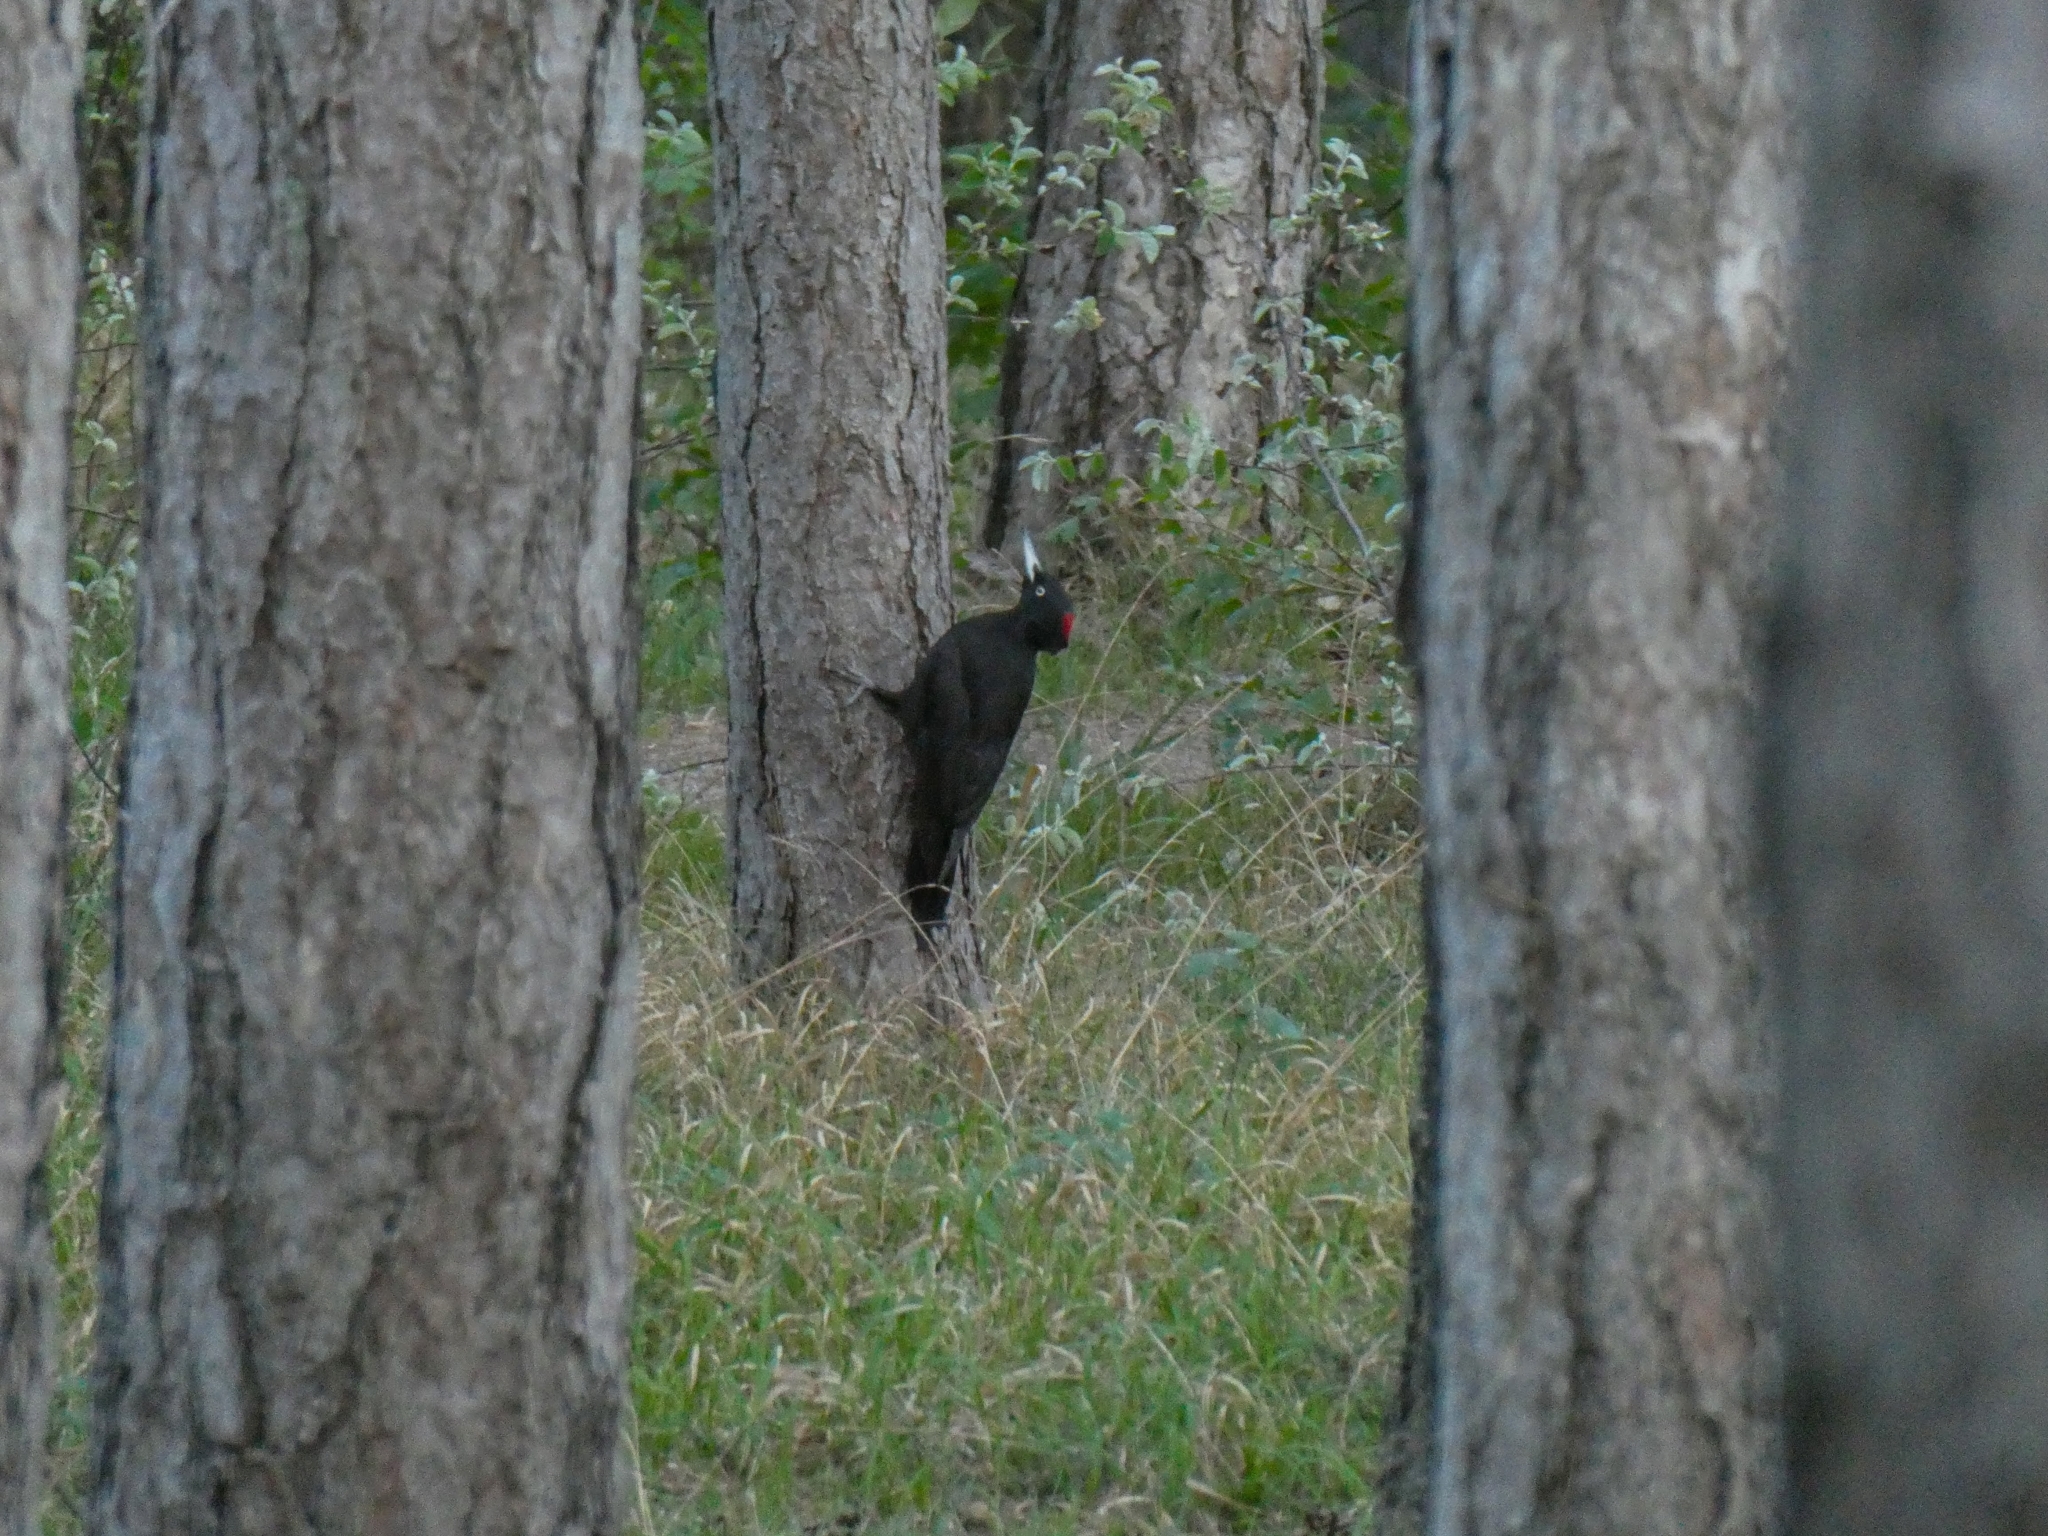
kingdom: Animalia
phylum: Chordata
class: Aves
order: Piciformes
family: Picidae
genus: Dryocopus
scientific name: Dryocopus martius
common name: Black woodpecker
